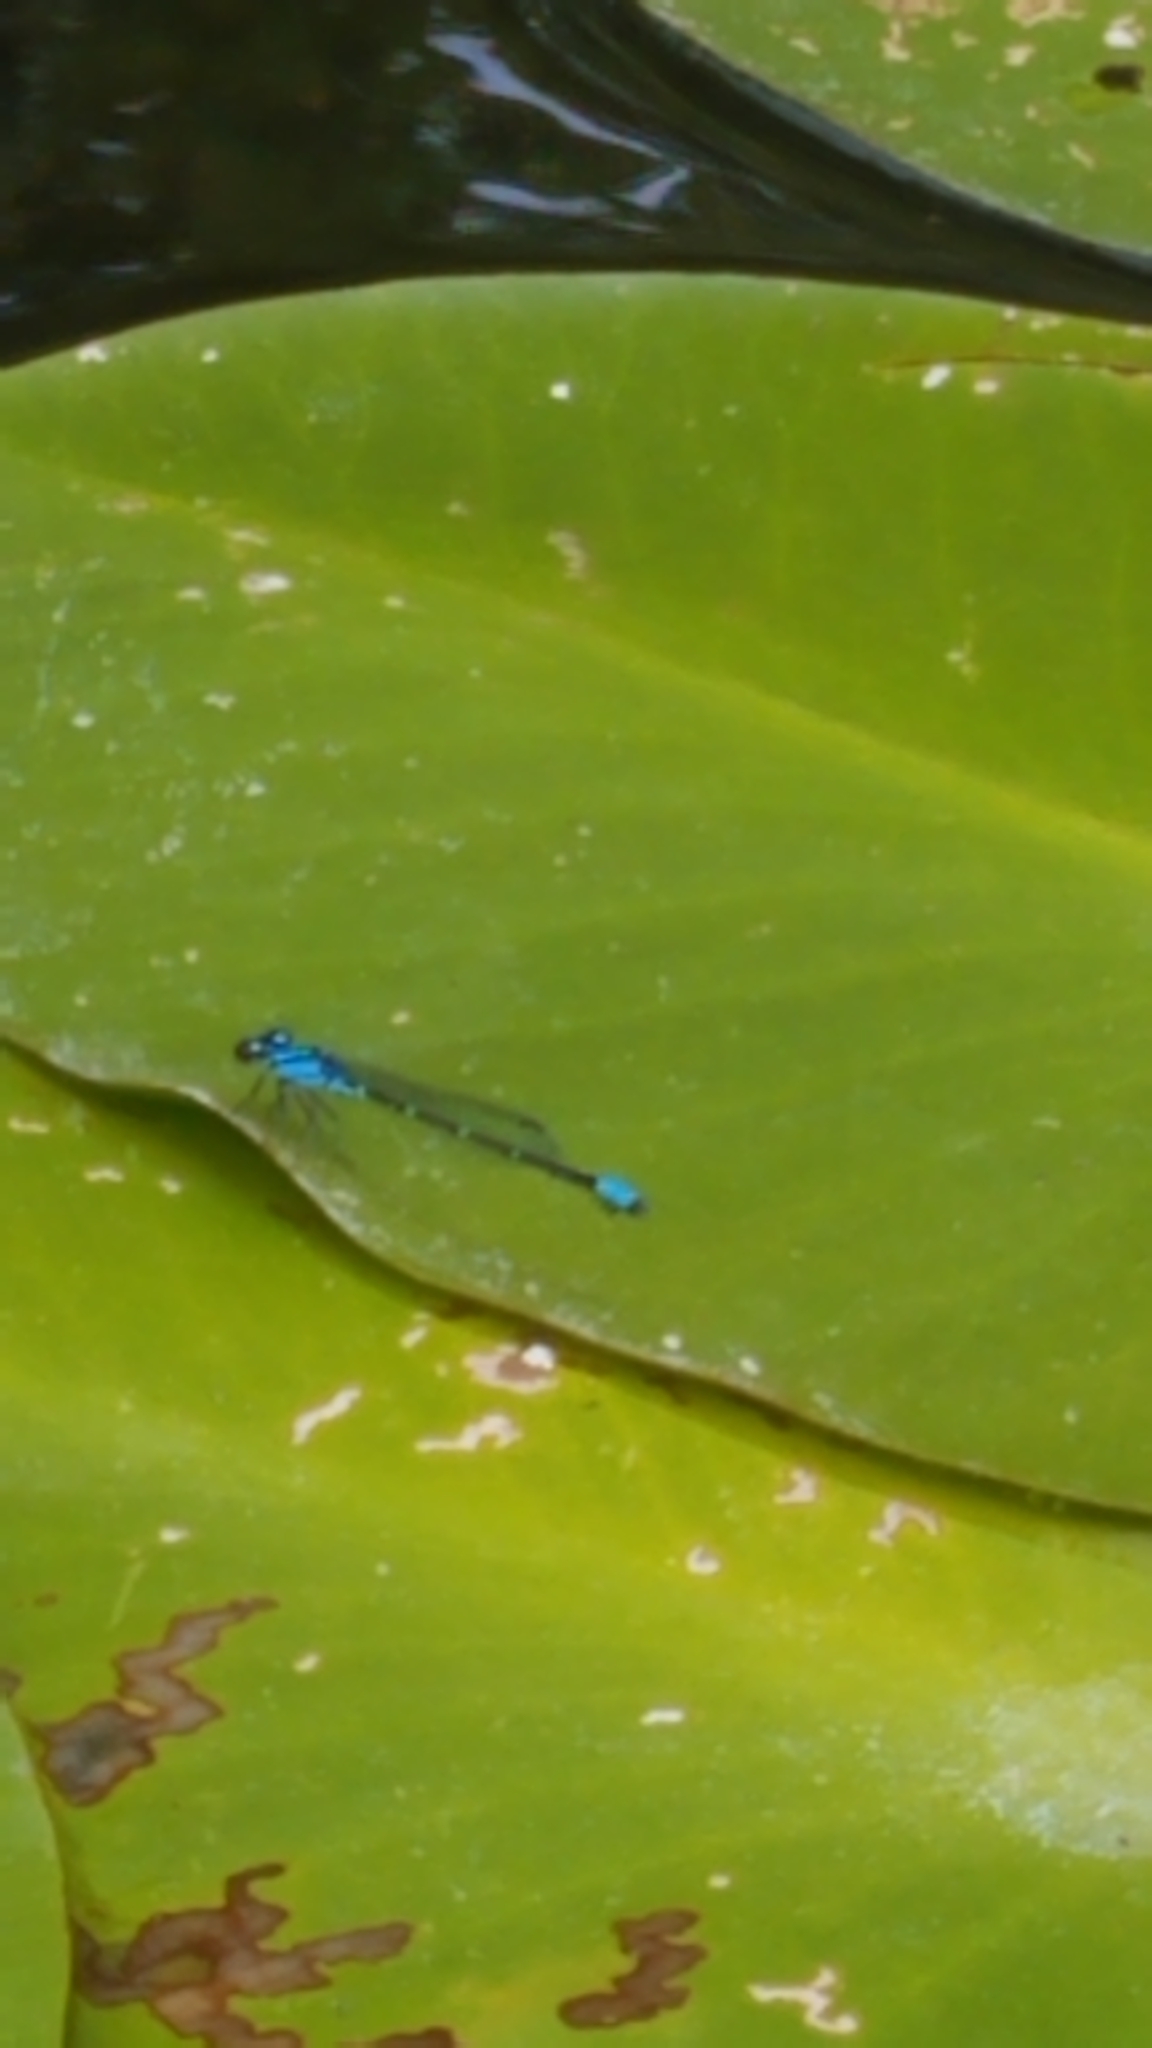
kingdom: Animalia
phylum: Arthropoda
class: Insecta
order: Odonata
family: Coenagrionidae
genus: Enallagma
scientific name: Enallagma geminatum
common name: Skimming bluet
